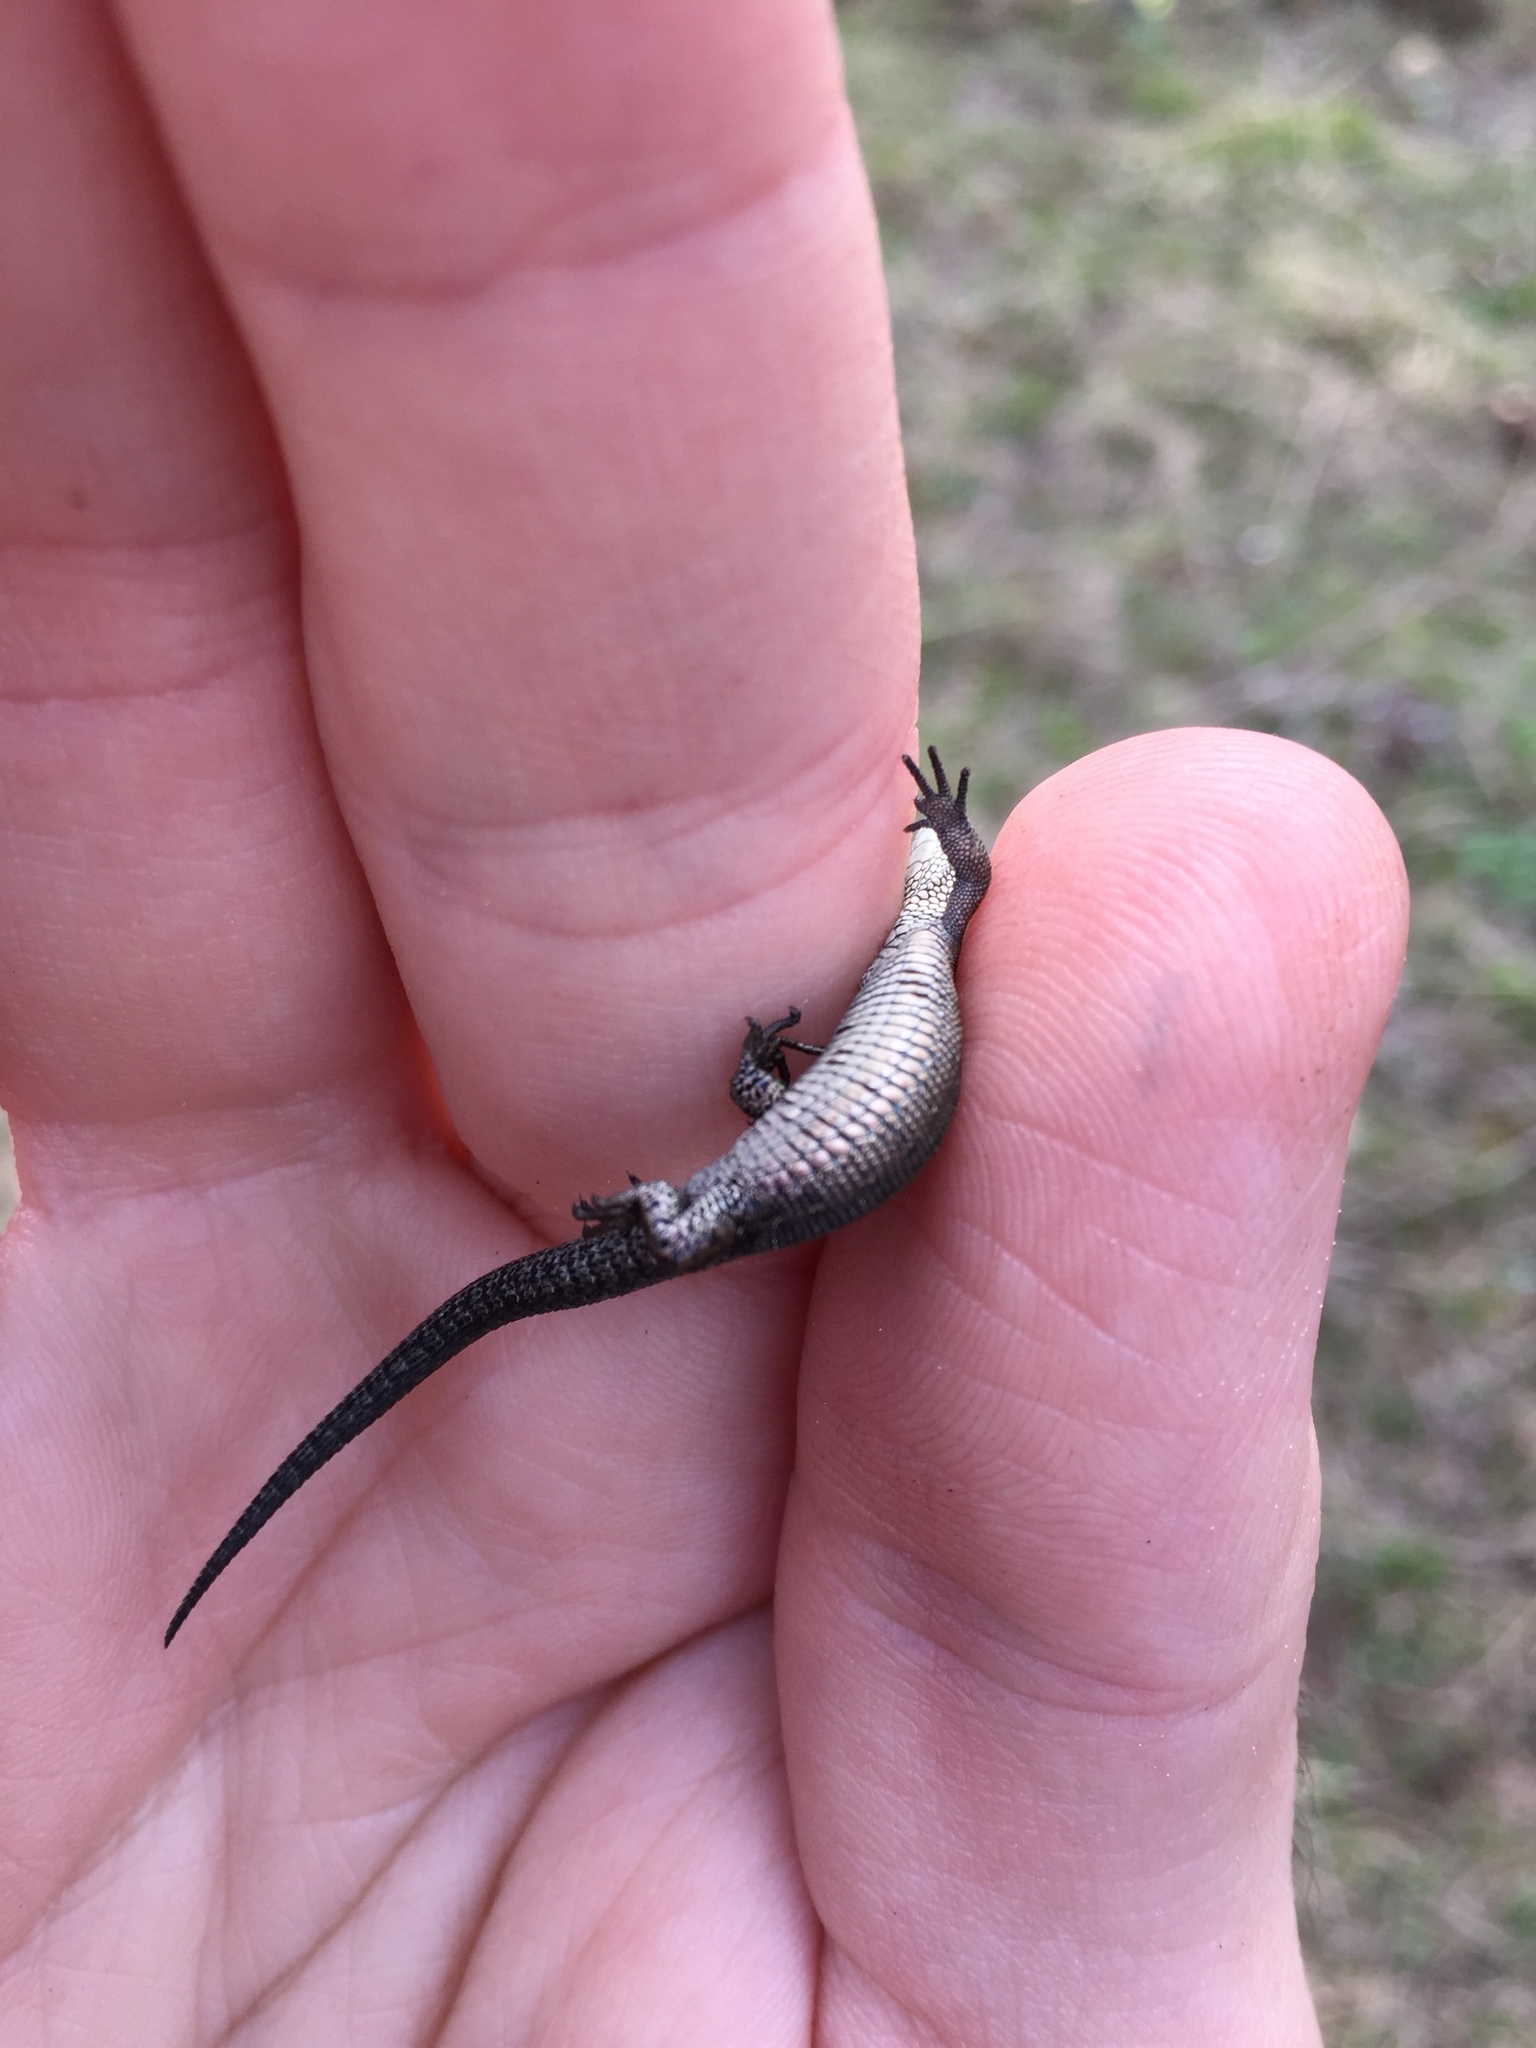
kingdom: Animalia
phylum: Chordata
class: Squamata
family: Lacertidae
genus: Zootoca
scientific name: Zootoca vivipara
